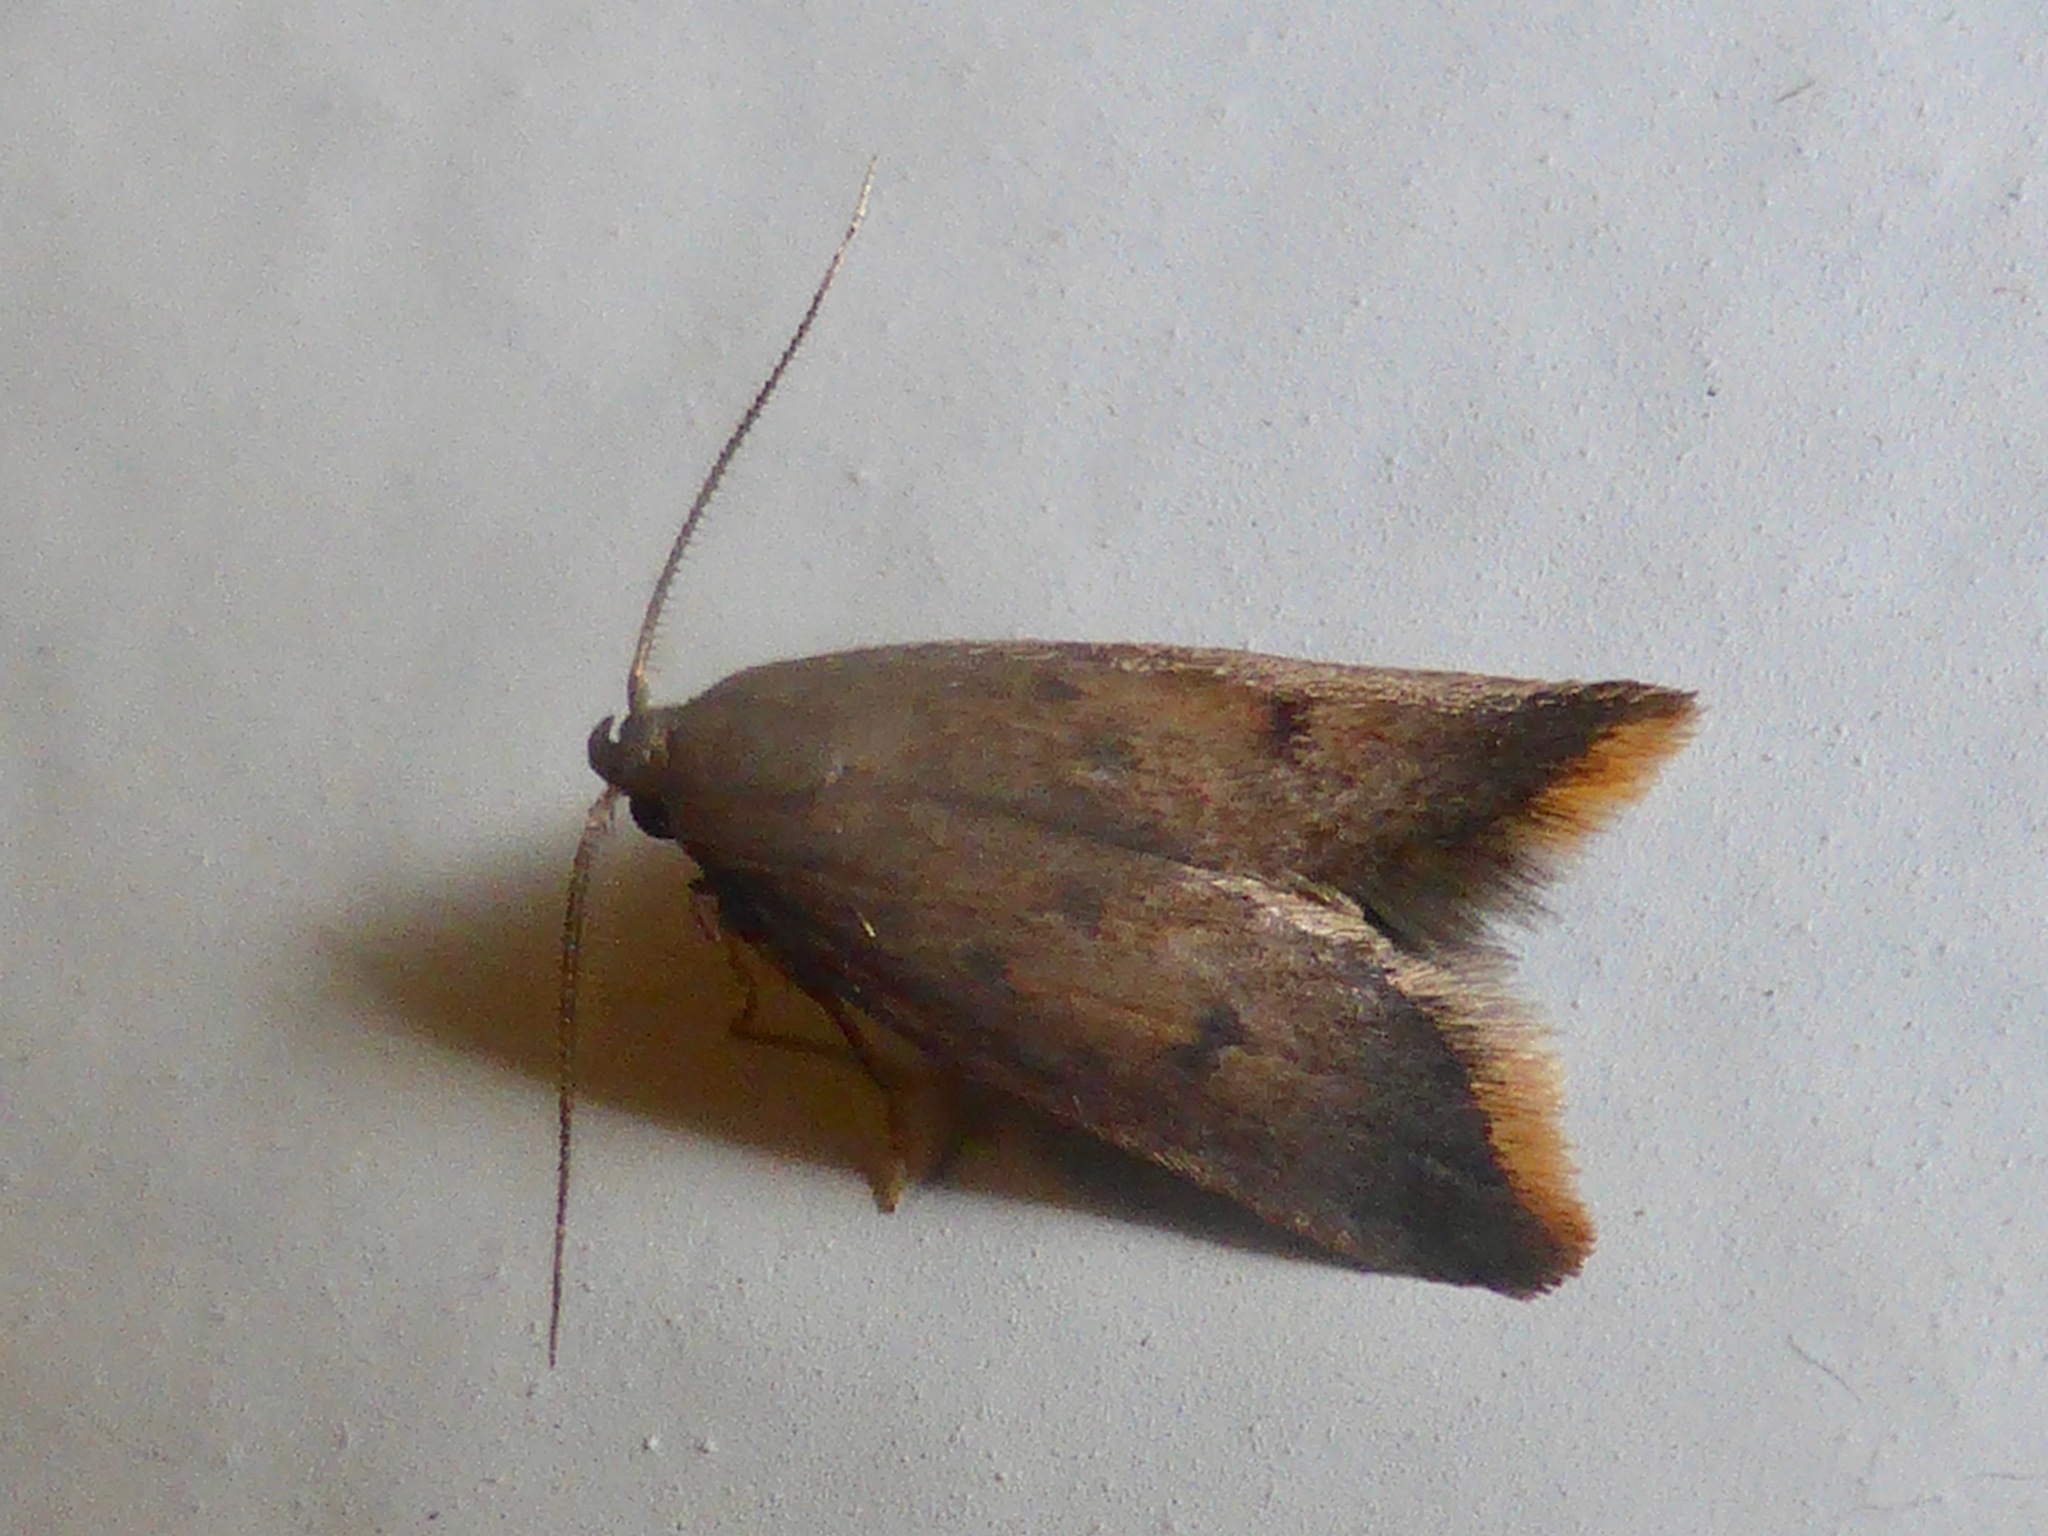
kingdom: Animalia
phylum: Arthropoda
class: Insecta
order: Lepidoptera
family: Oecophoridae
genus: Tachystola
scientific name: Tachystola acroxantha
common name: Ruddy streak
